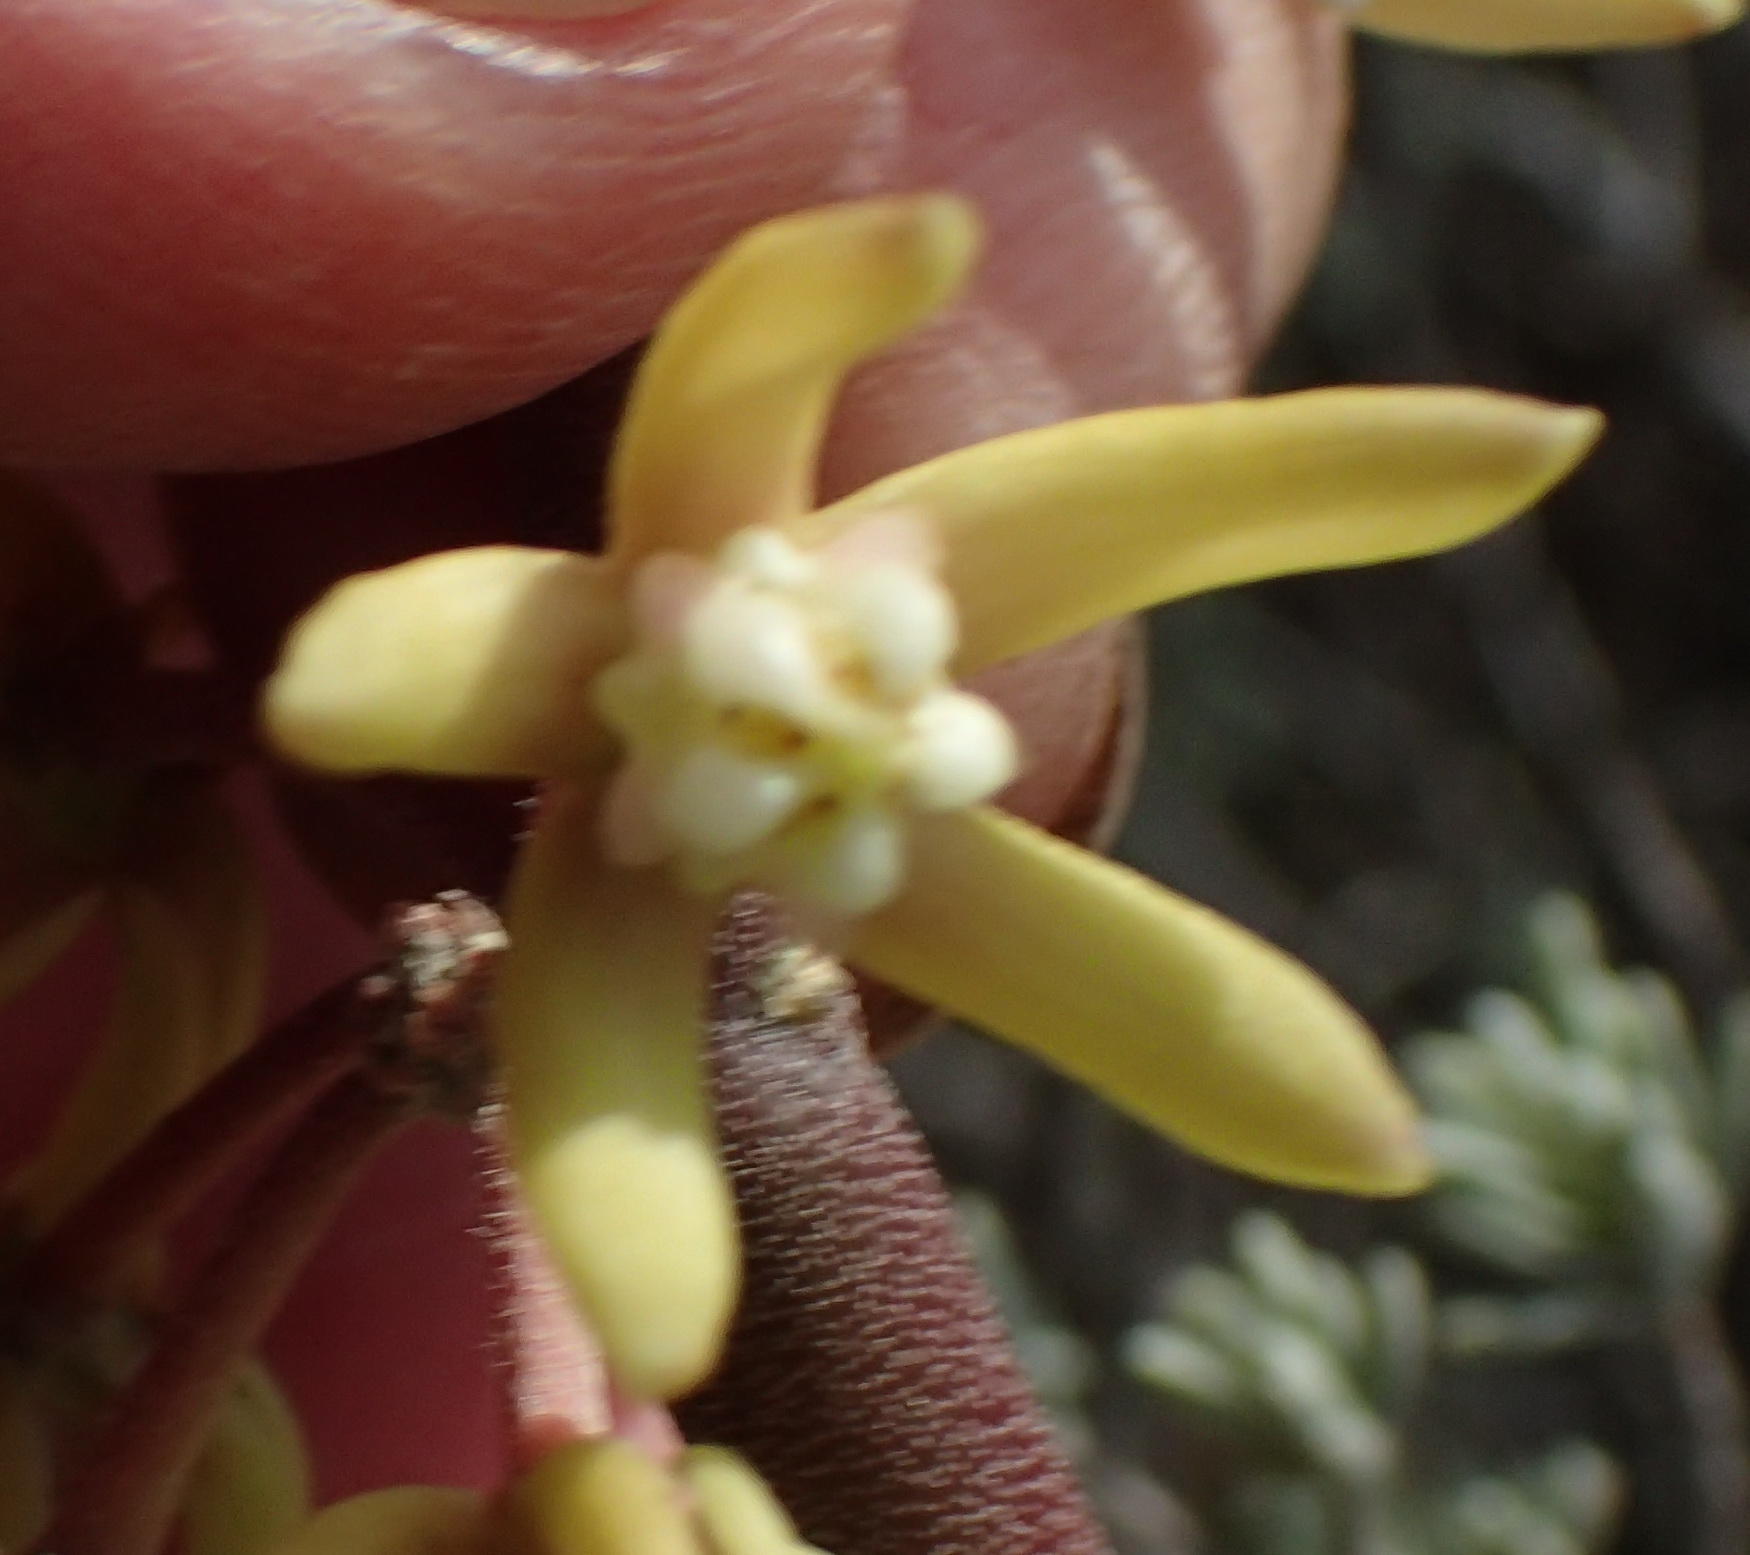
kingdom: Plantae
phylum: Tracheophyta
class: Magnoliopsida
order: Gentianales
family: Apocynaceae
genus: Cynanchum
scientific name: Cynanchum viminale
